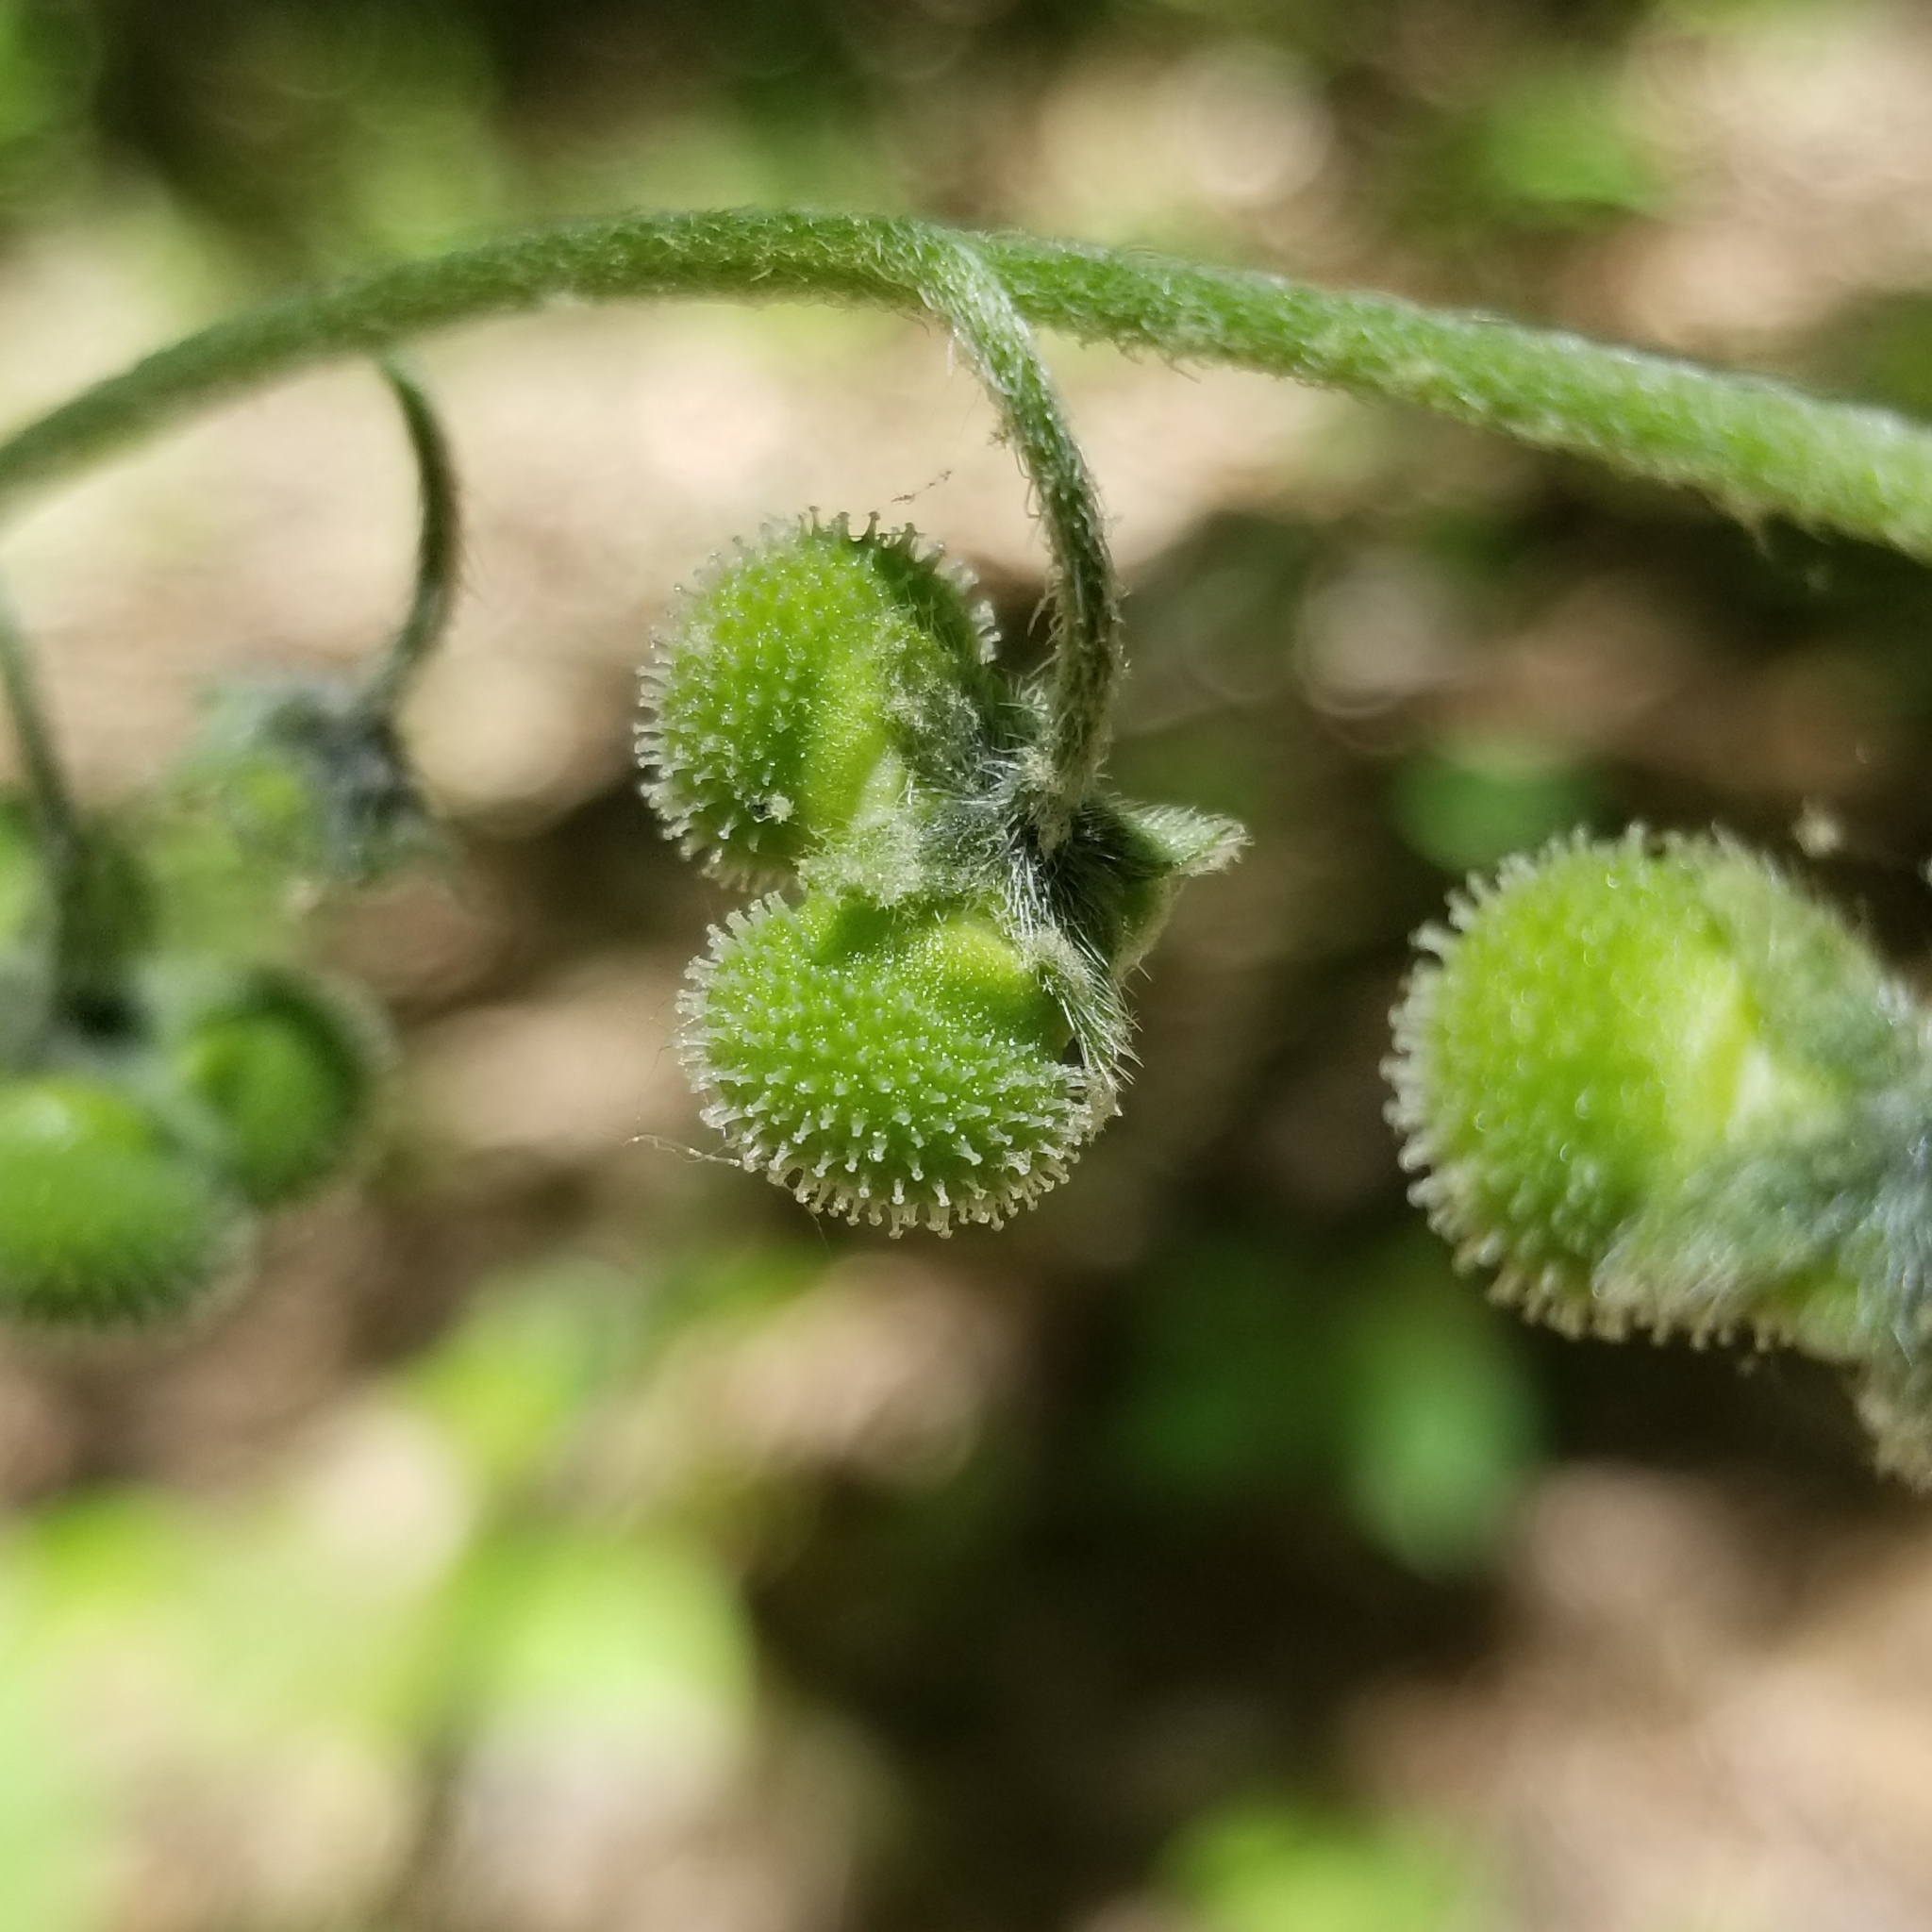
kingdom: Plantae
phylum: Tracheophyta
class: Magnoliopsida
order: Boraginales
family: Boraginaceae
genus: Andersonglossum
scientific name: Andersonglossum virginianum
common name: Wild comfrey
